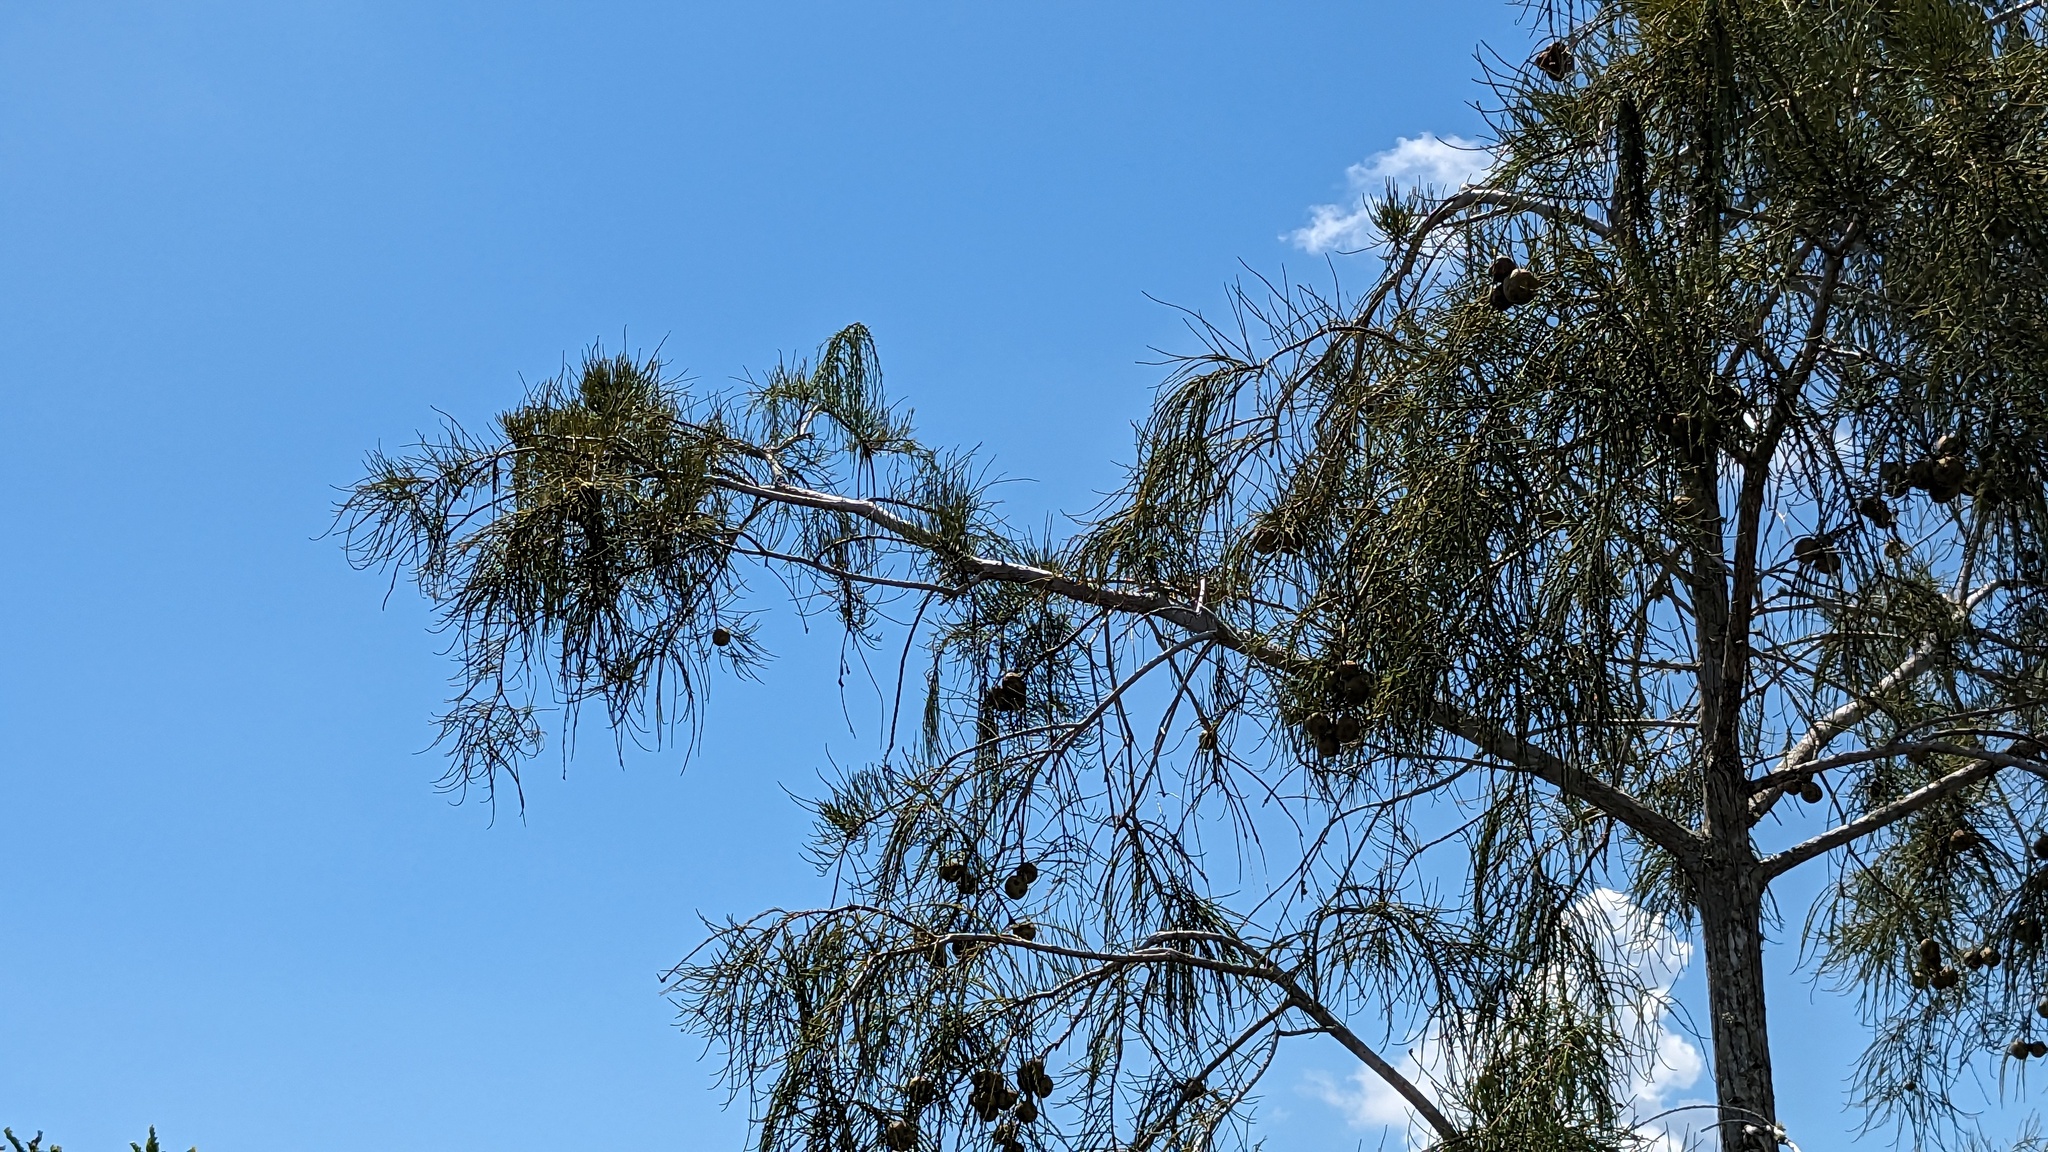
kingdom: Plantae
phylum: Tracheophyta
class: Pinopsida
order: Pinales
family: Cupressaceae
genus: Taxodium
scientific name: Taxodium distichum
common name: Bald cypress
